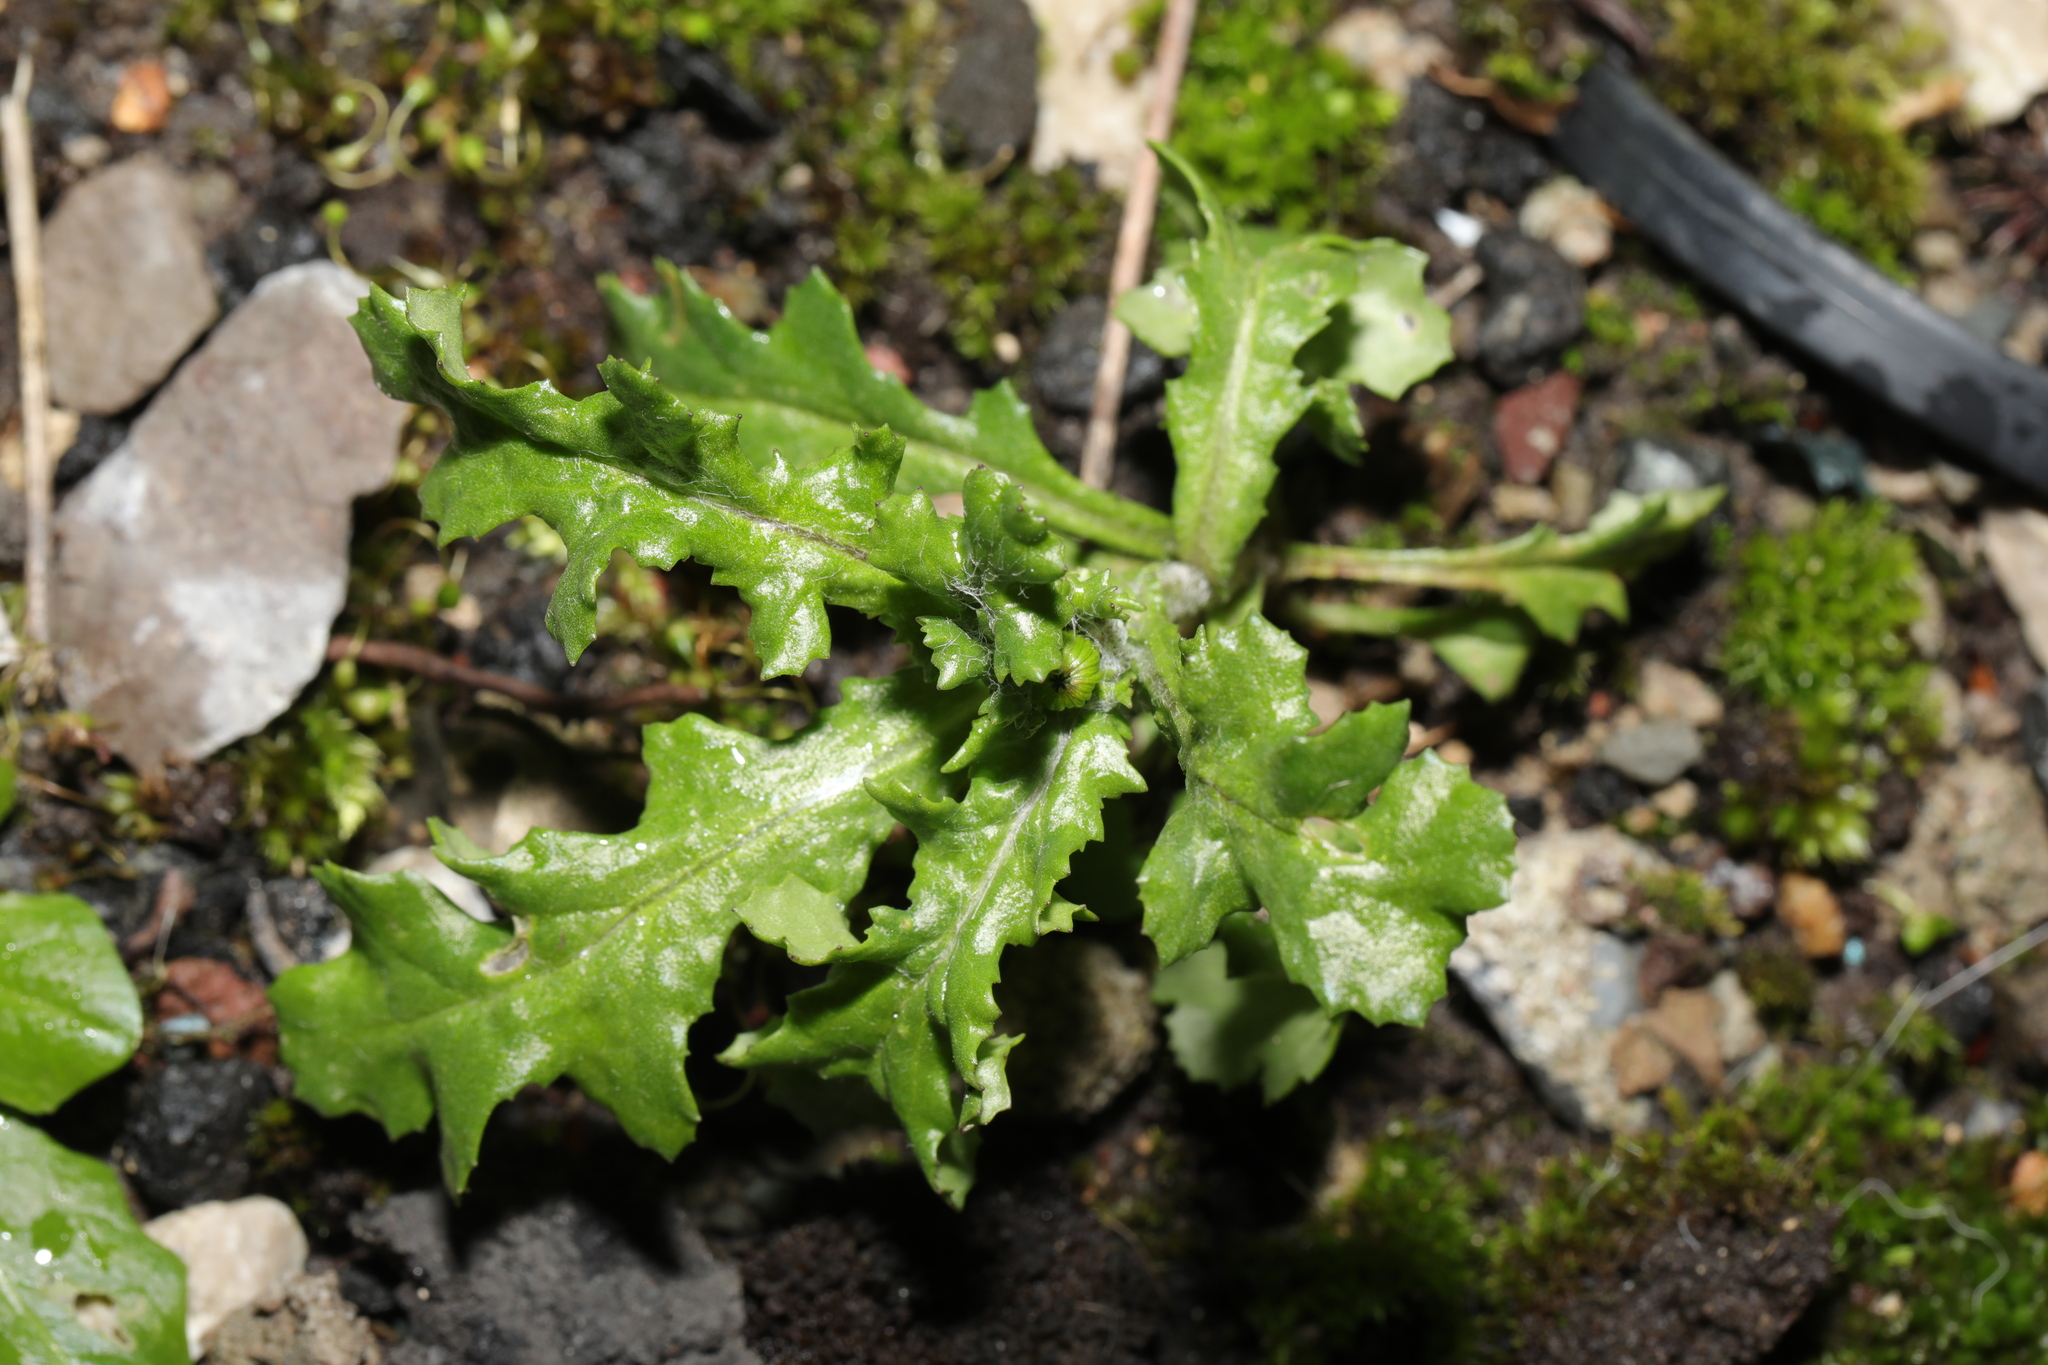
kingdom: Plantae
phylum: Tracheophyta
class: Magnoliopsida
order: Asterales
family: Asteraceae
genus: Senecio
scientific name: Senecio vulgaris
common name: Old-man-in-the-spring
